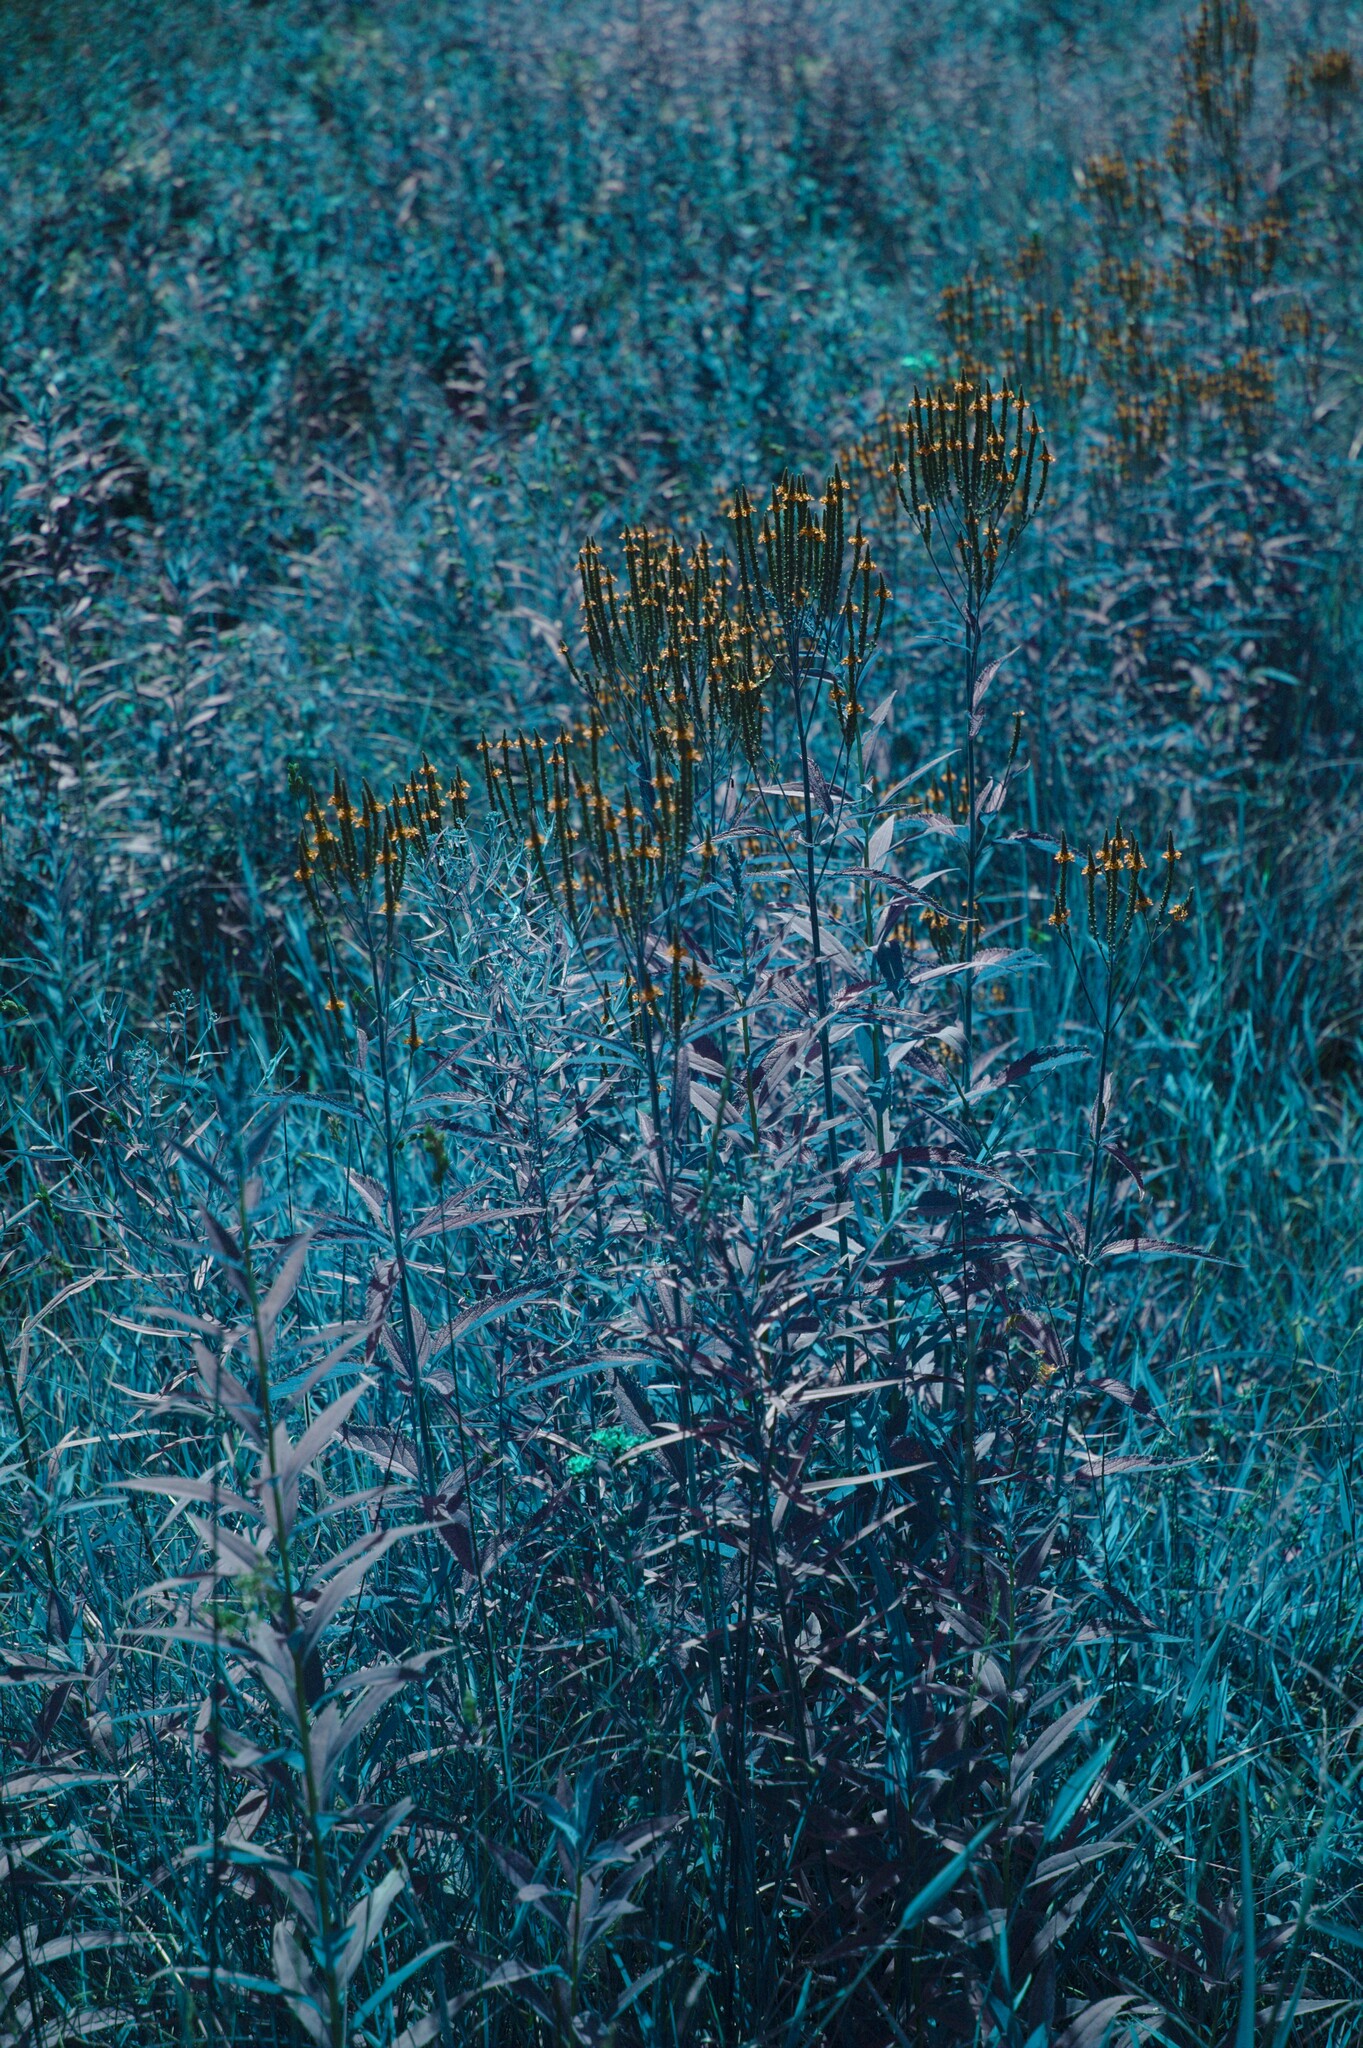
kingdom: Plantae
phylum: Tracheophyta
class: Magnoliopsida
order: Lamiales
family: Verbenaceae
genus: Verbena
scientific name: Verbena hastata
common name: American blue vervain
